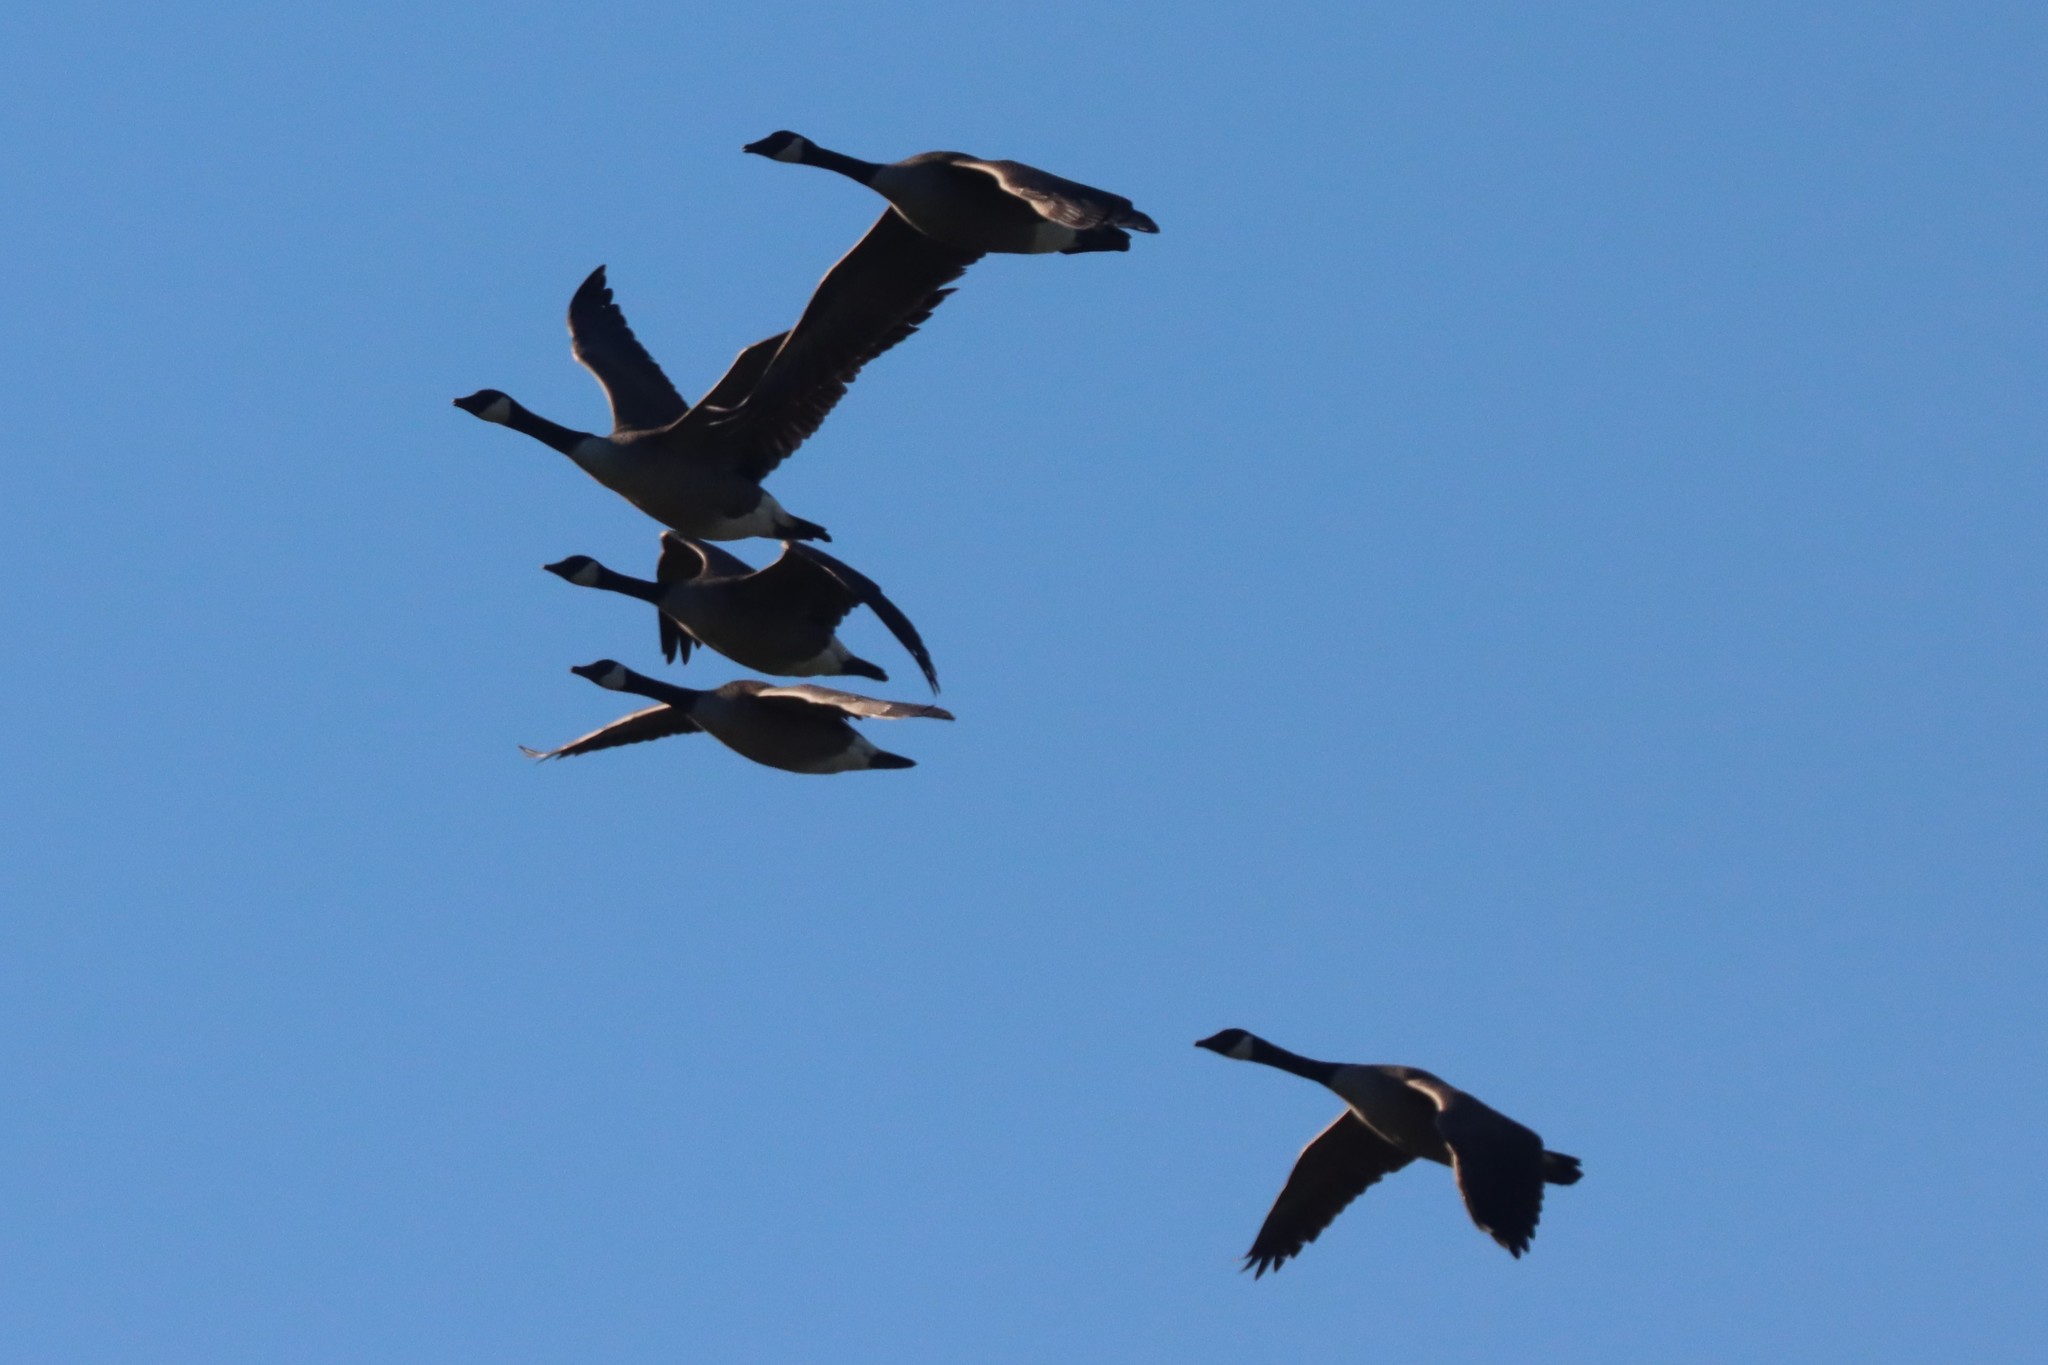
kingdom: Animalia
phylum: Chordata
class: Aves
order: Anseriformes
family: Anatidae
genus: Branta
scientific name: Branta canadensis
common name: Canada goose
